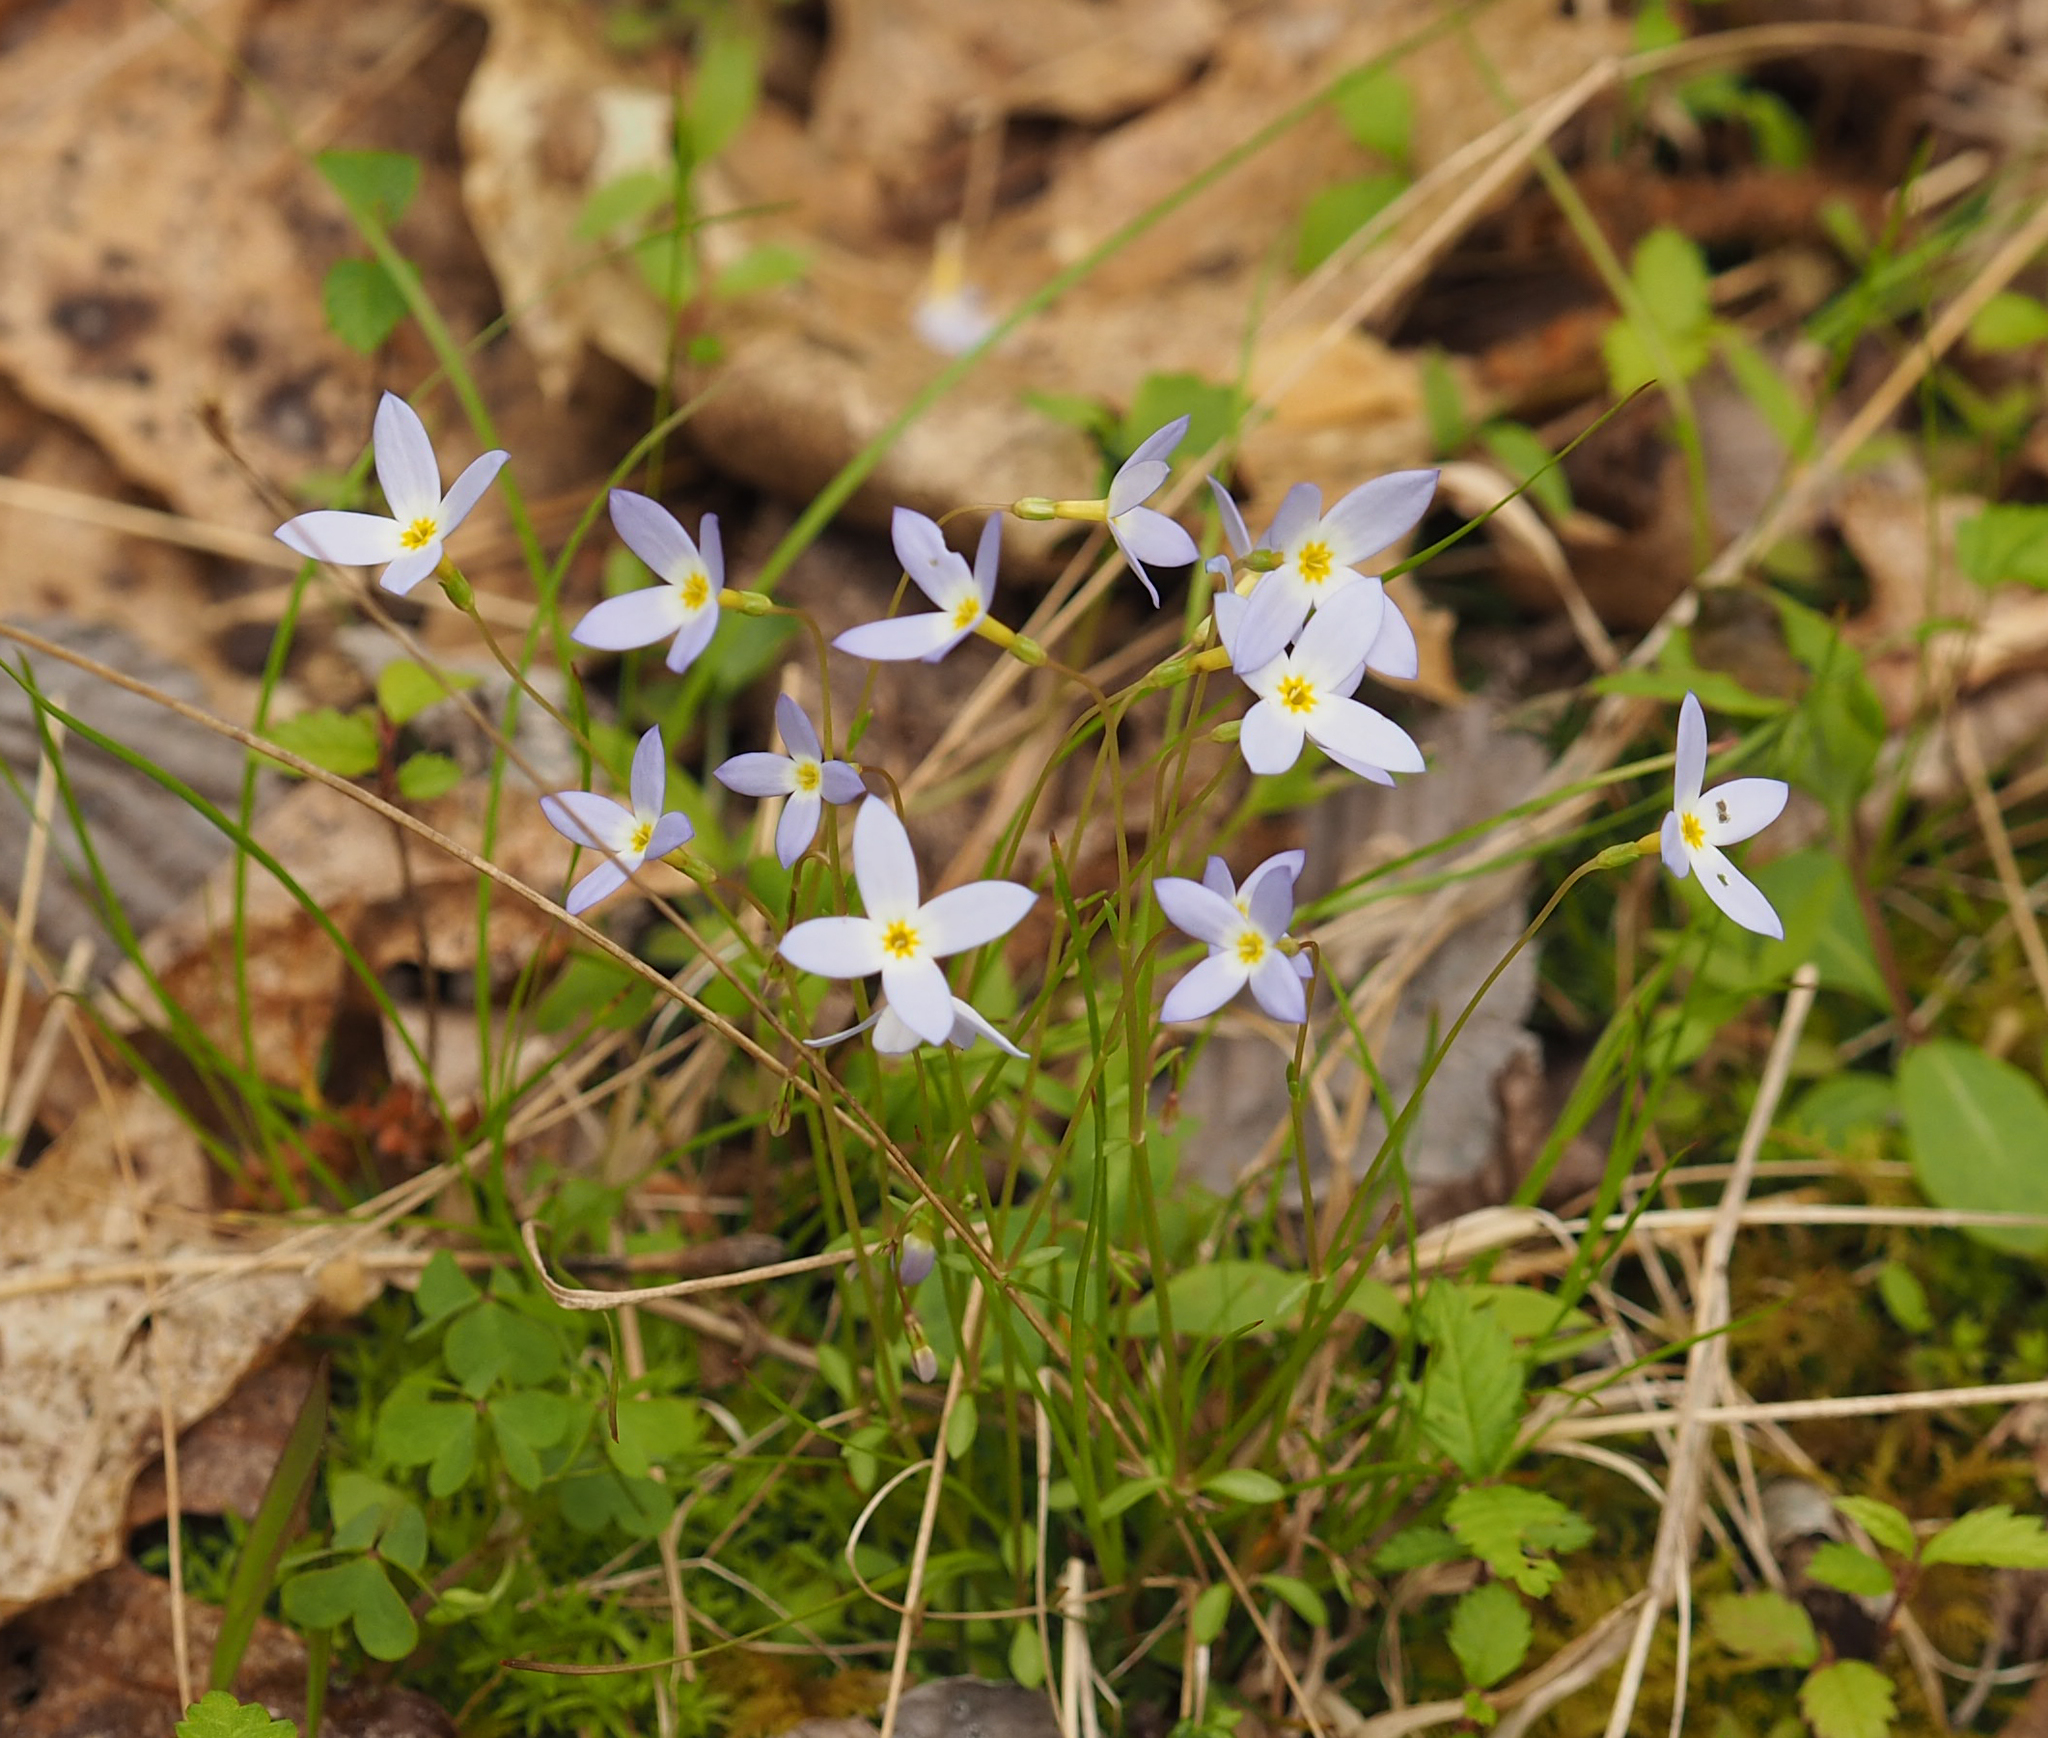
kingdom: Plantae
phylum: Tracheophyta
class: Magnoliopsida
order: Gentianales
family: Rubiaceae
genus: Houstonia
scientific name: Houstonia caerulea
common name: Bluets
